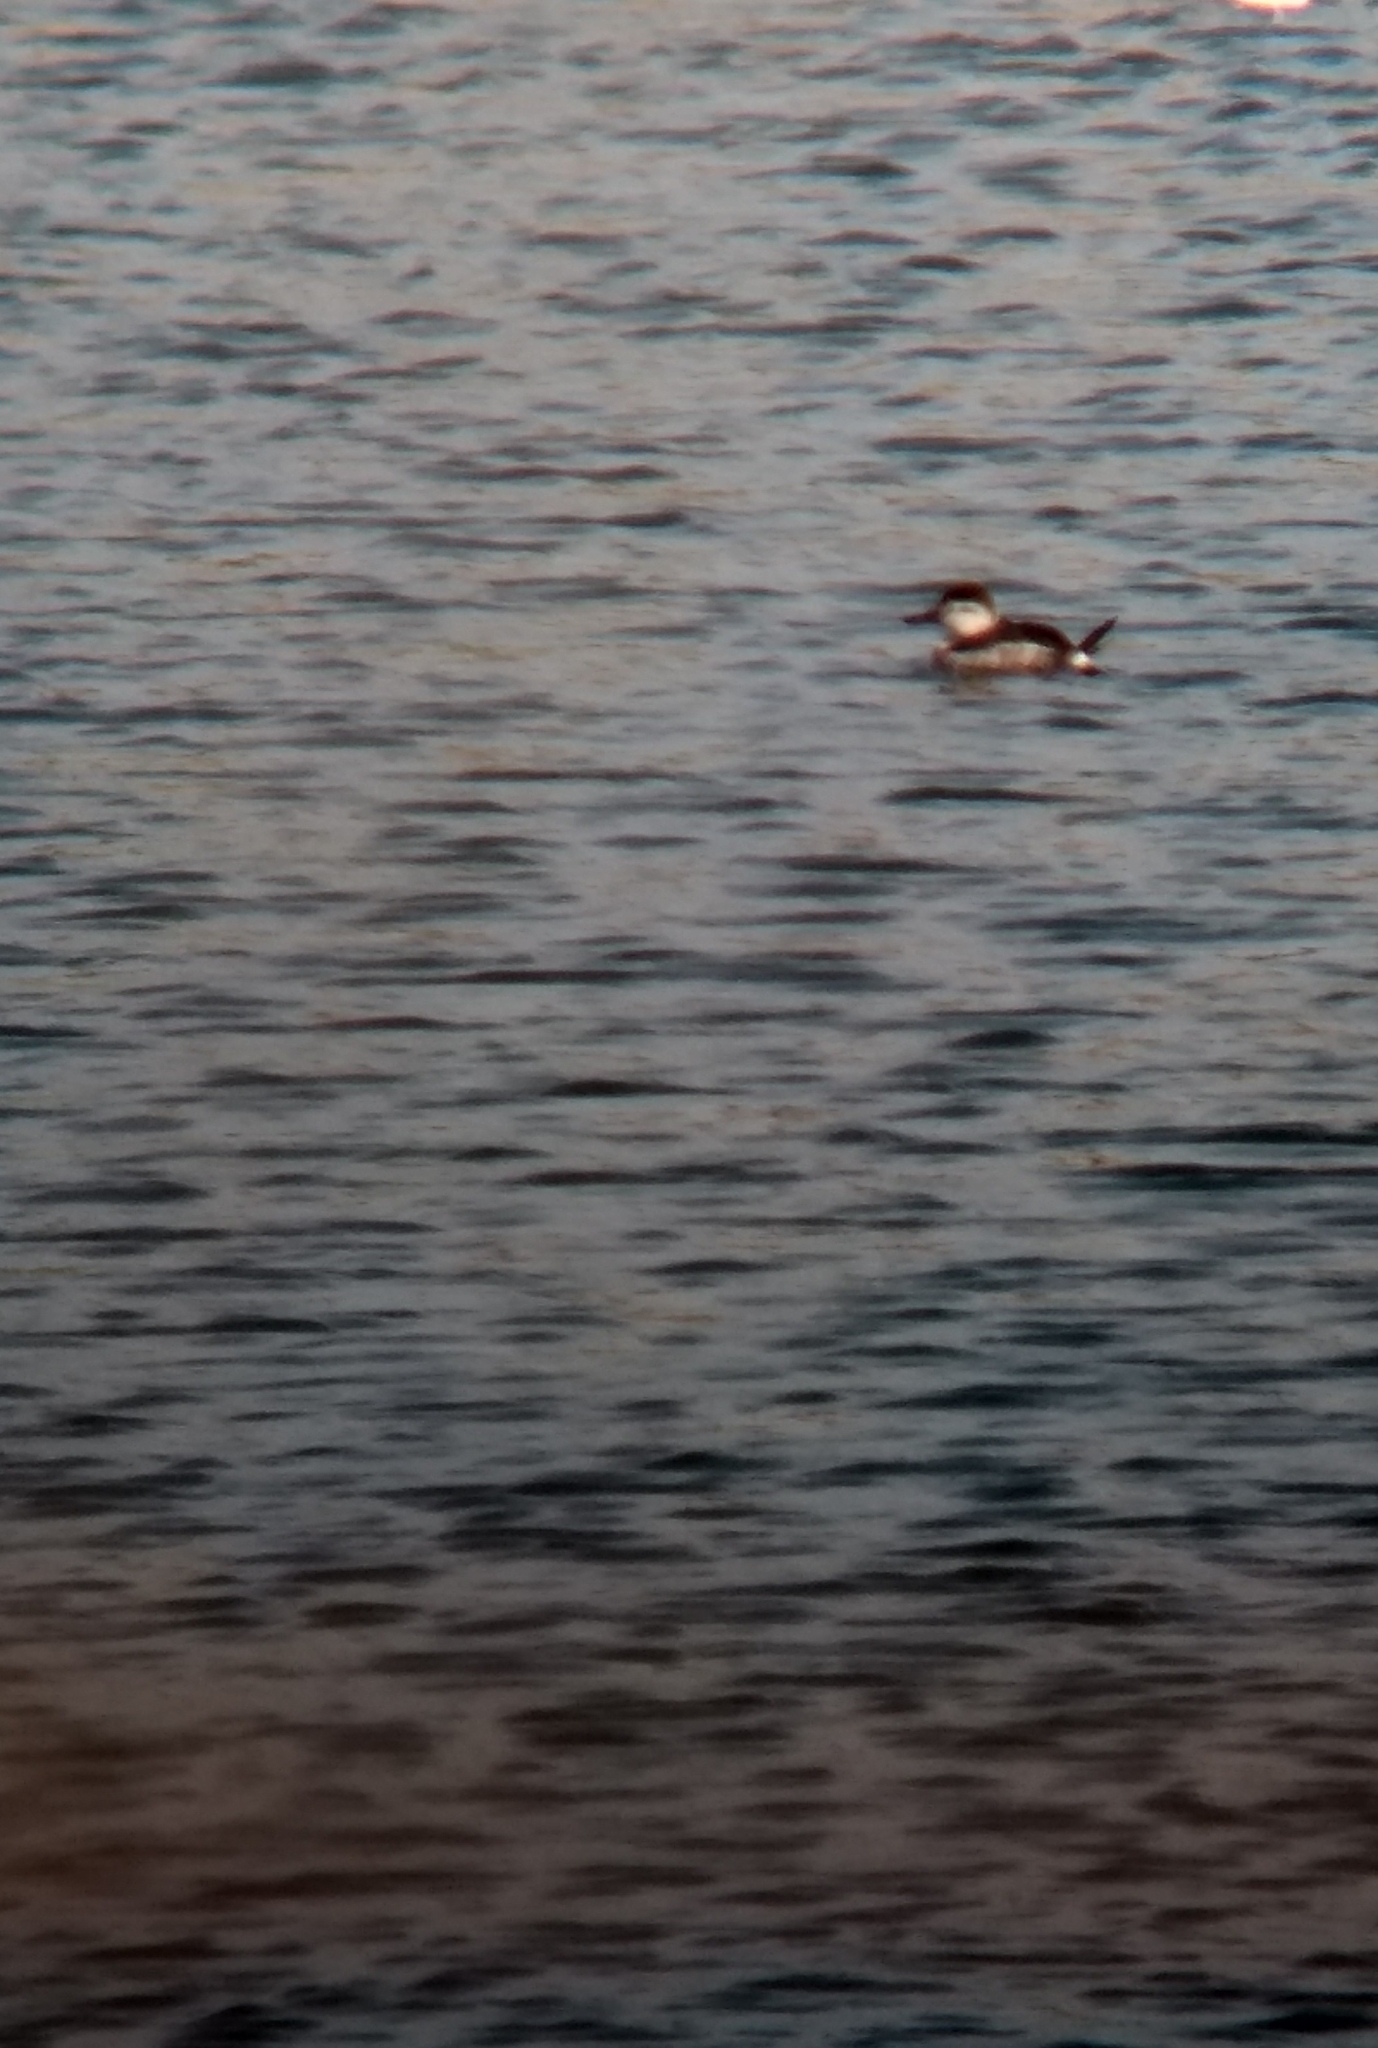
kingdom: Animalia
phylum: Chordata
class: Aves
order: Anseriformes
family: Anatidae
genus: Oxyura
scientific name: Oxyura jamaicensis
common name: Ruddy duck
